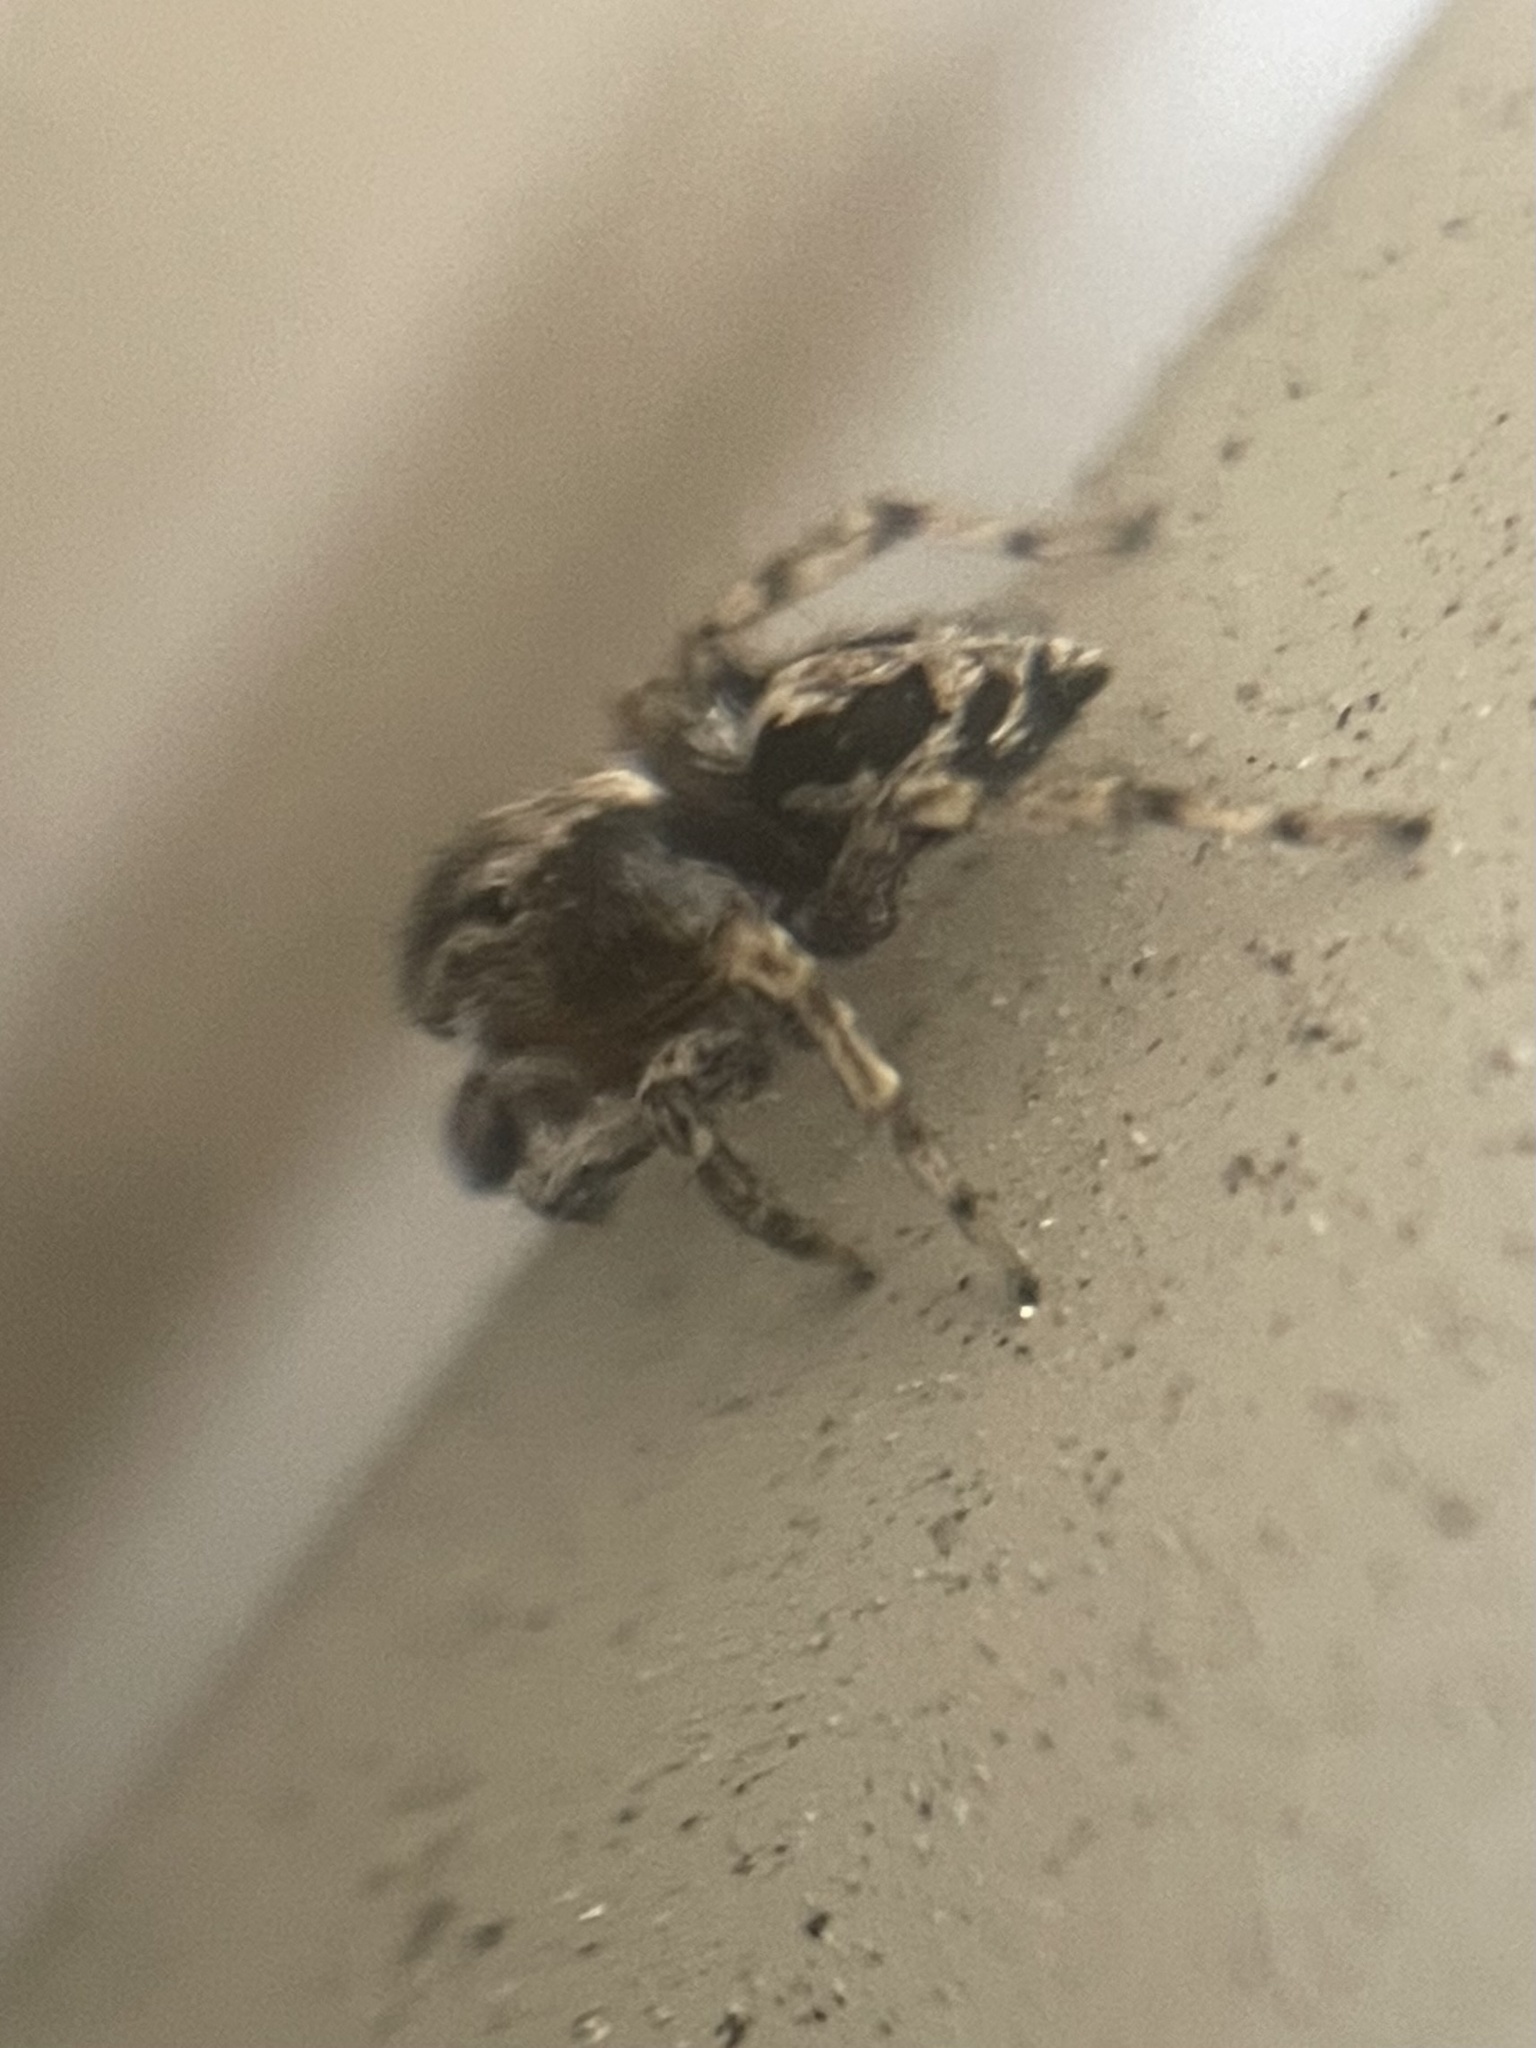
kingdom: Animalia
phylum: Arthropoda
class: Arachnida
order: Araneae
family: Salticidae
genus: Naphrys
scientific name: Naphrys pulex
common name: Flea jumping spider
